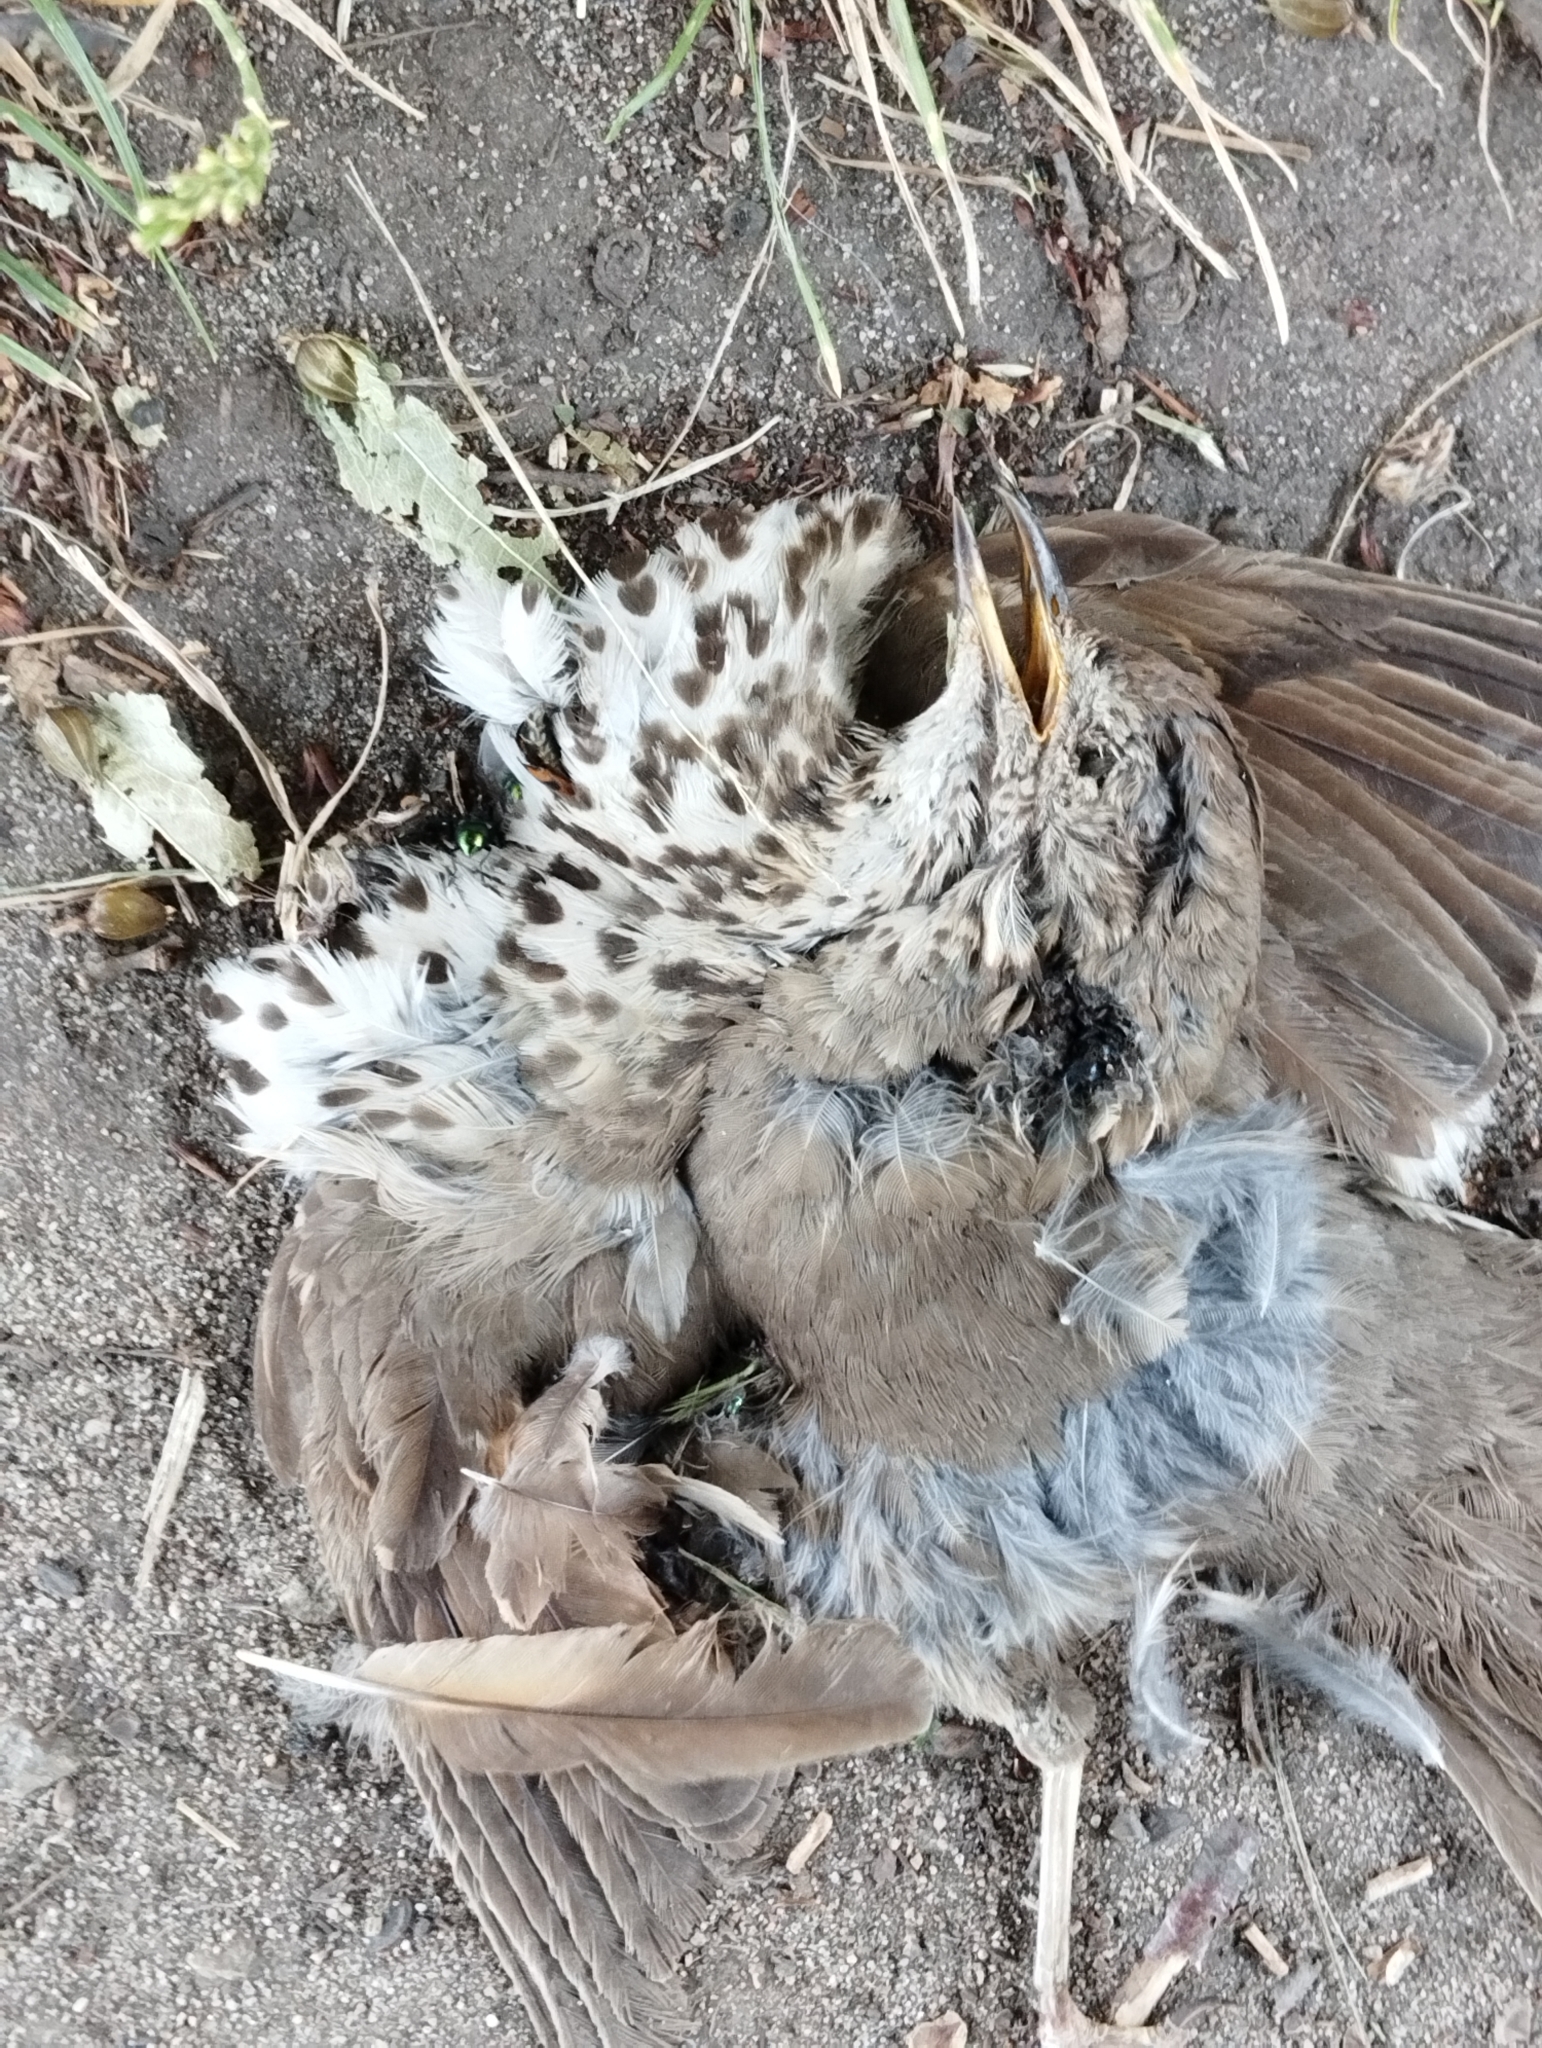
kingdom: Animalia
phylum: Chordata
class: Aves
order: Passeriformes
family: Turdidae
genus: Turdus
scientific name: Turdus philomelos
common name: Song thrush
